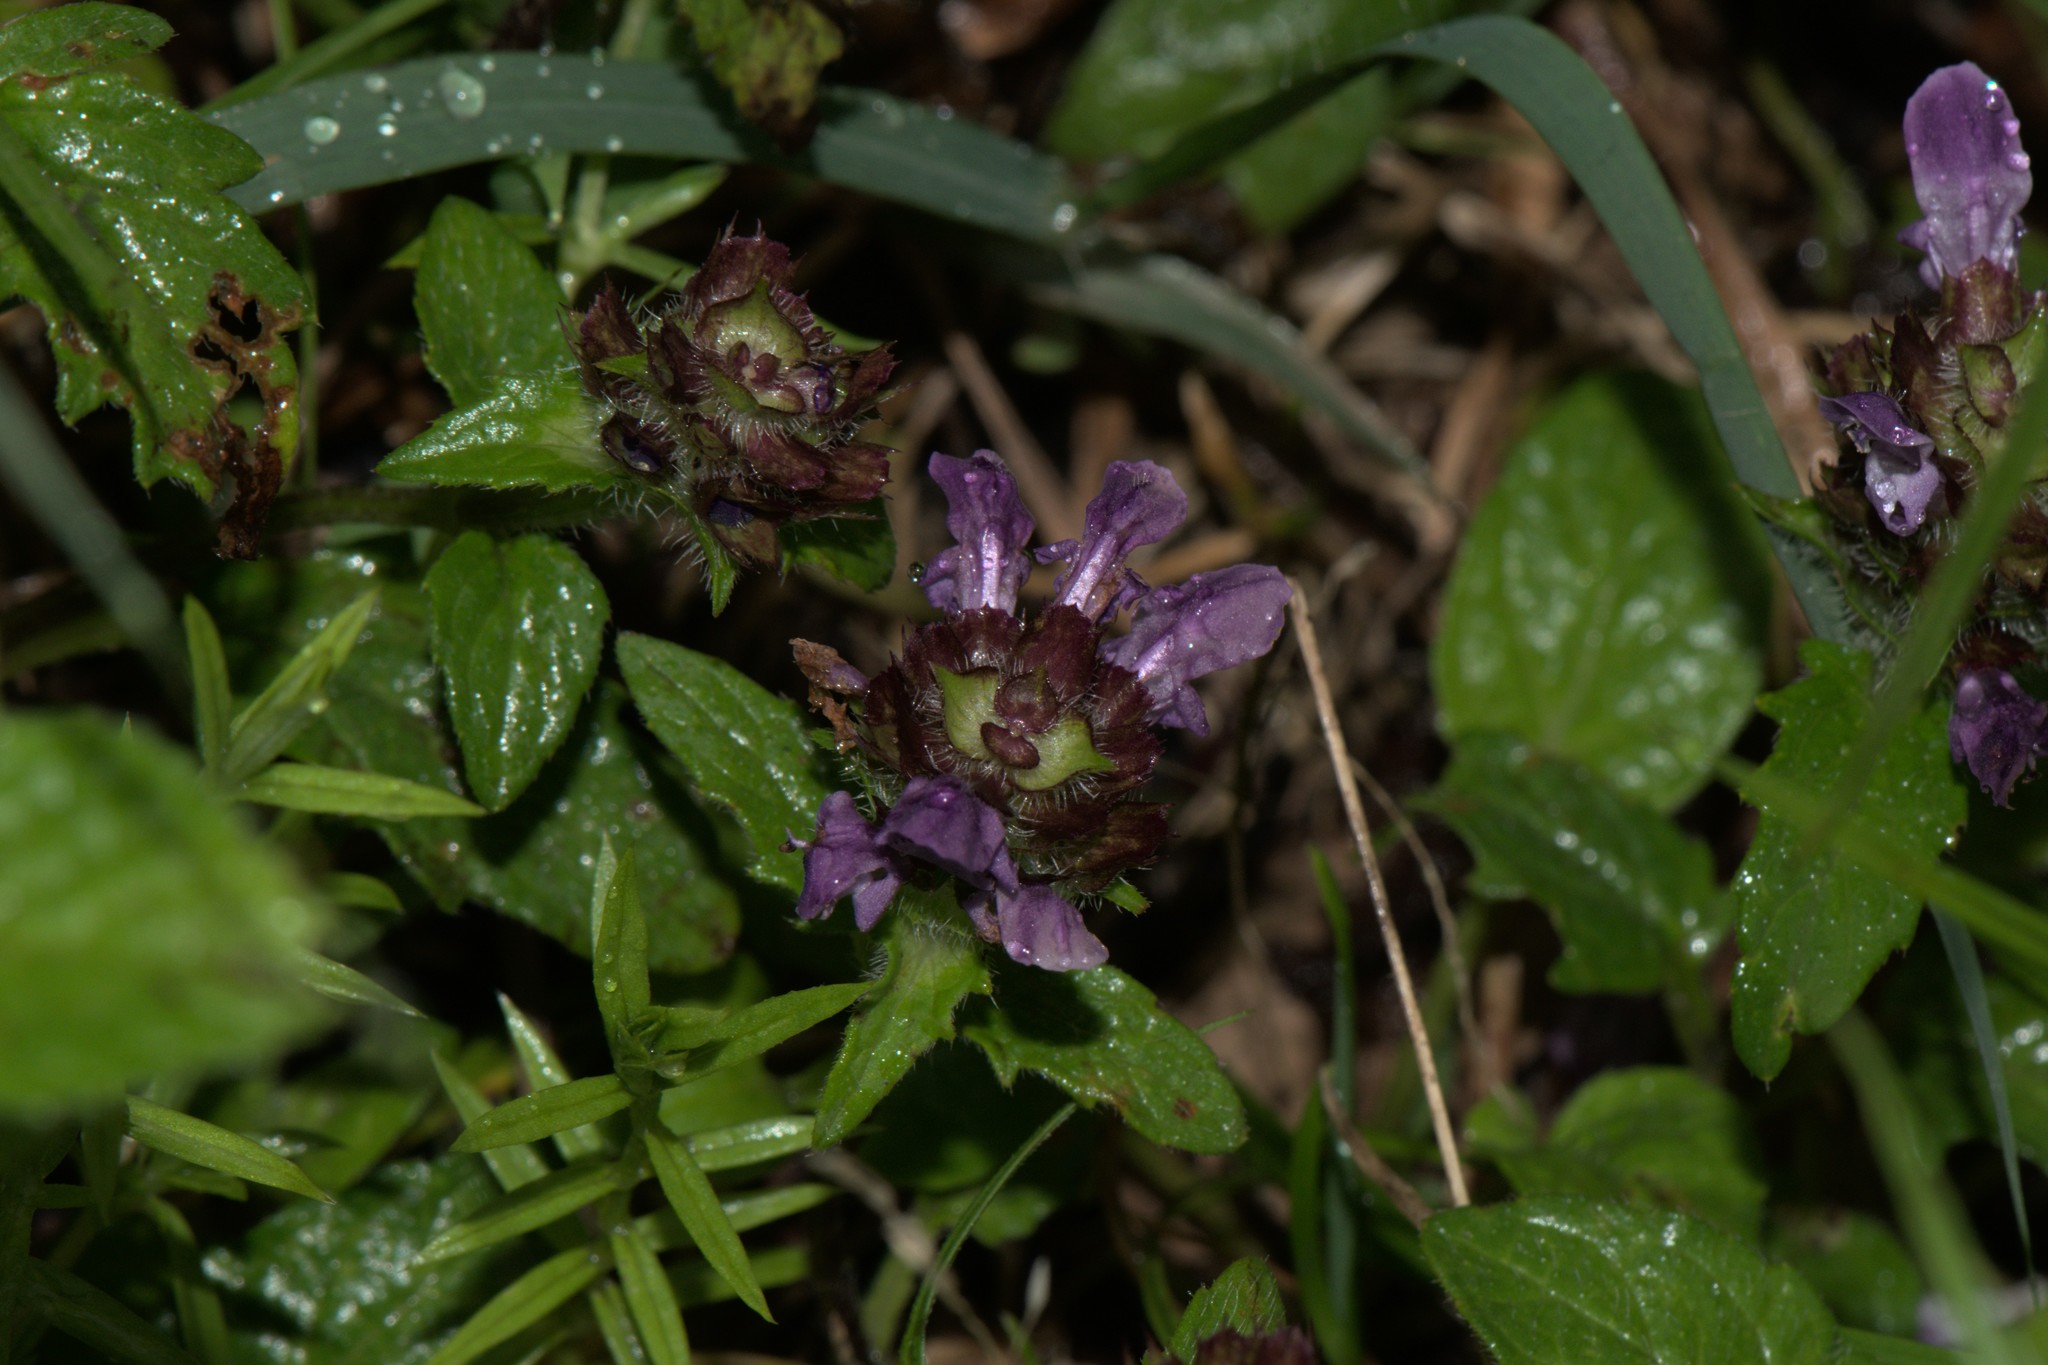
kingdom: Plantae
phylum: Tracheophyta
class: Magnoliopsida
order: Lamiales
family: Lamiaceae
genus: Prunella
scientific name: Prunella vulgaris
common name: Heal-all
